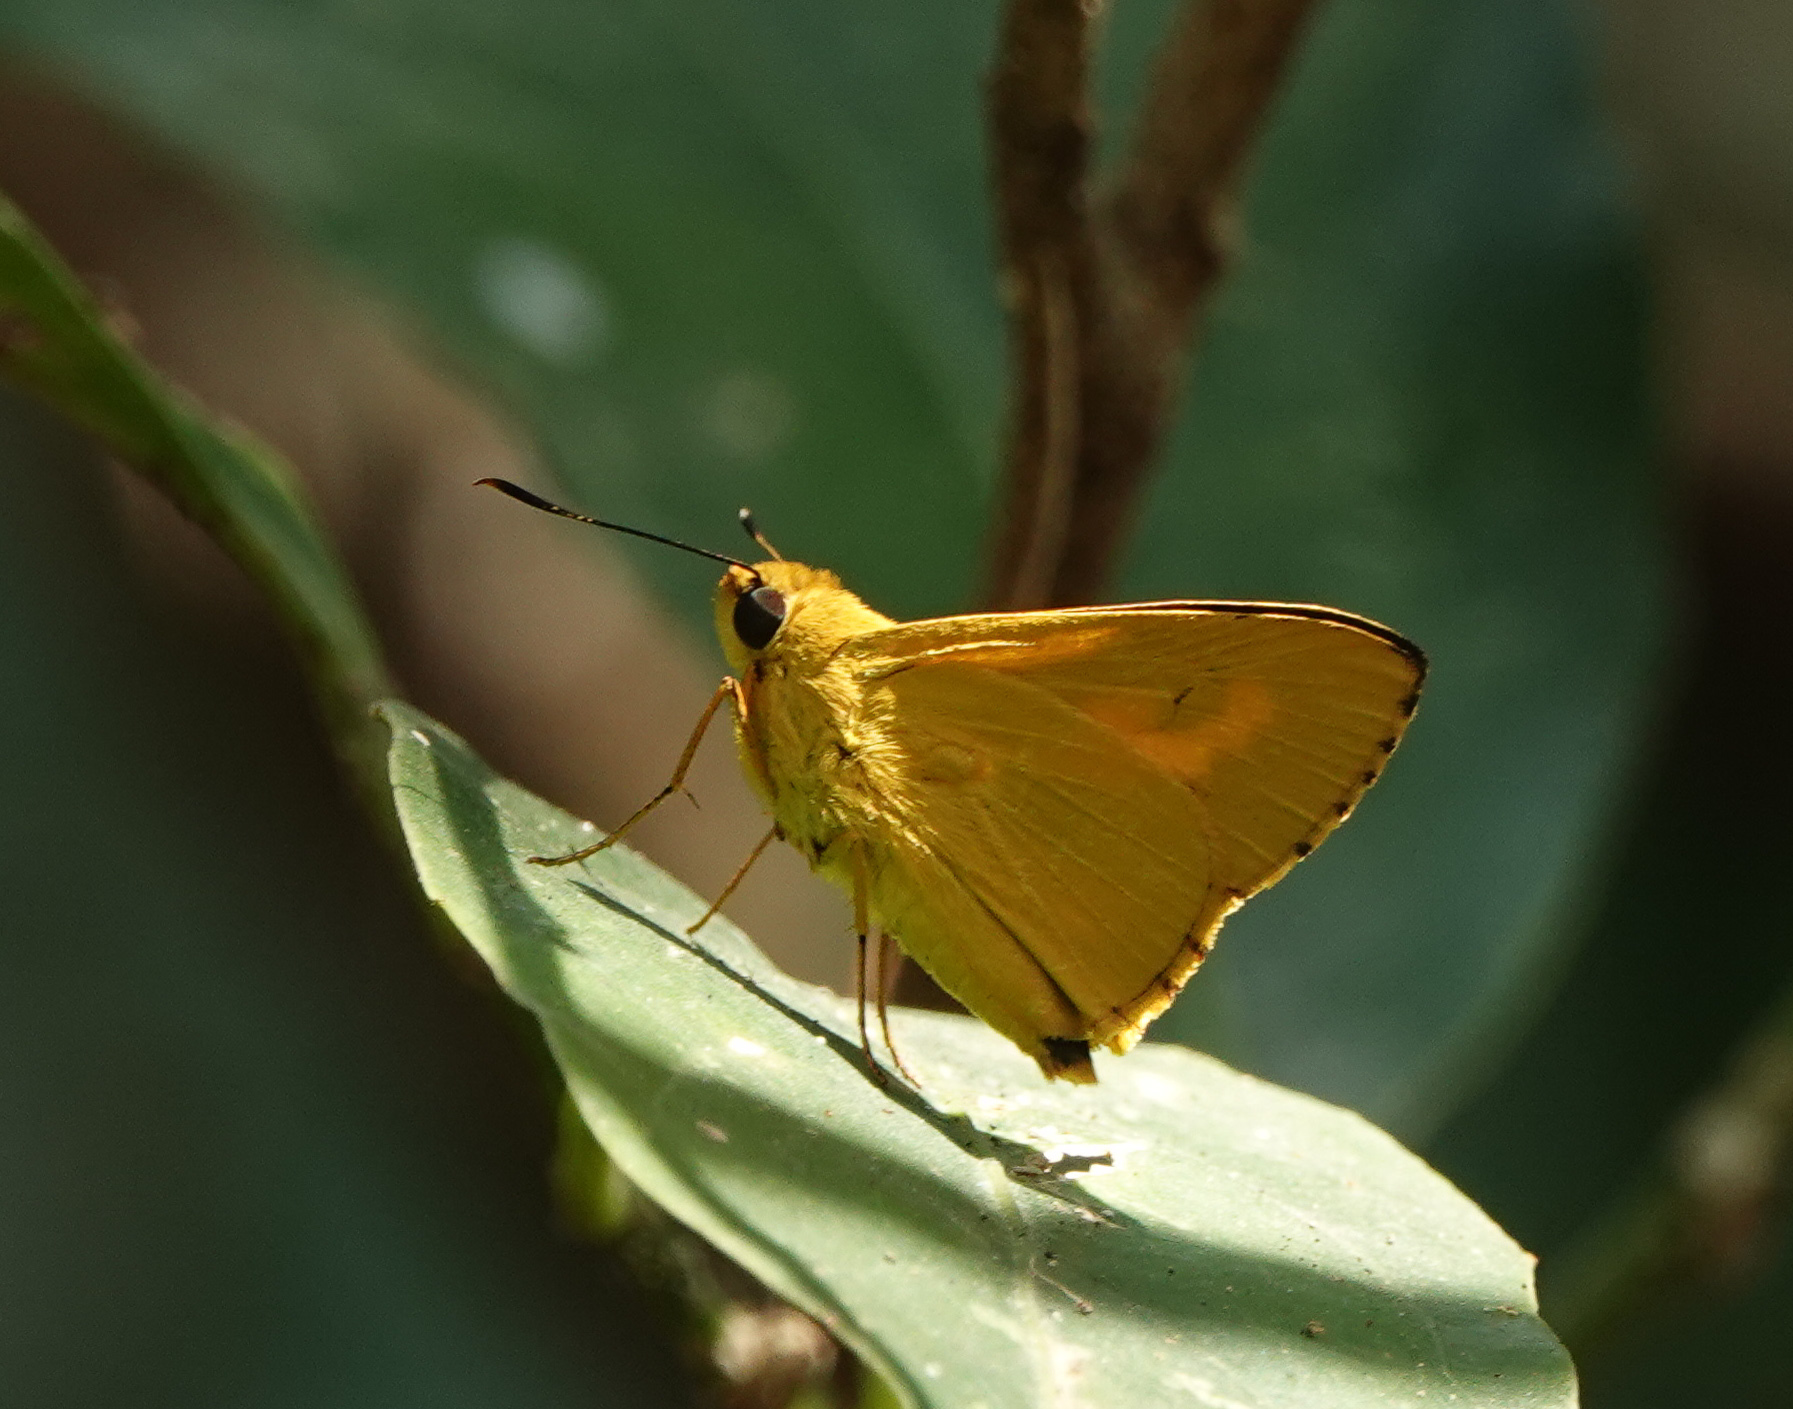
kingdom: Animalia
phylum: Arthropoda
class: Insecta
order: Lepidoptera
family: Hesperiidae
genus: Cupitha
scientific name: Cupitha purreea
